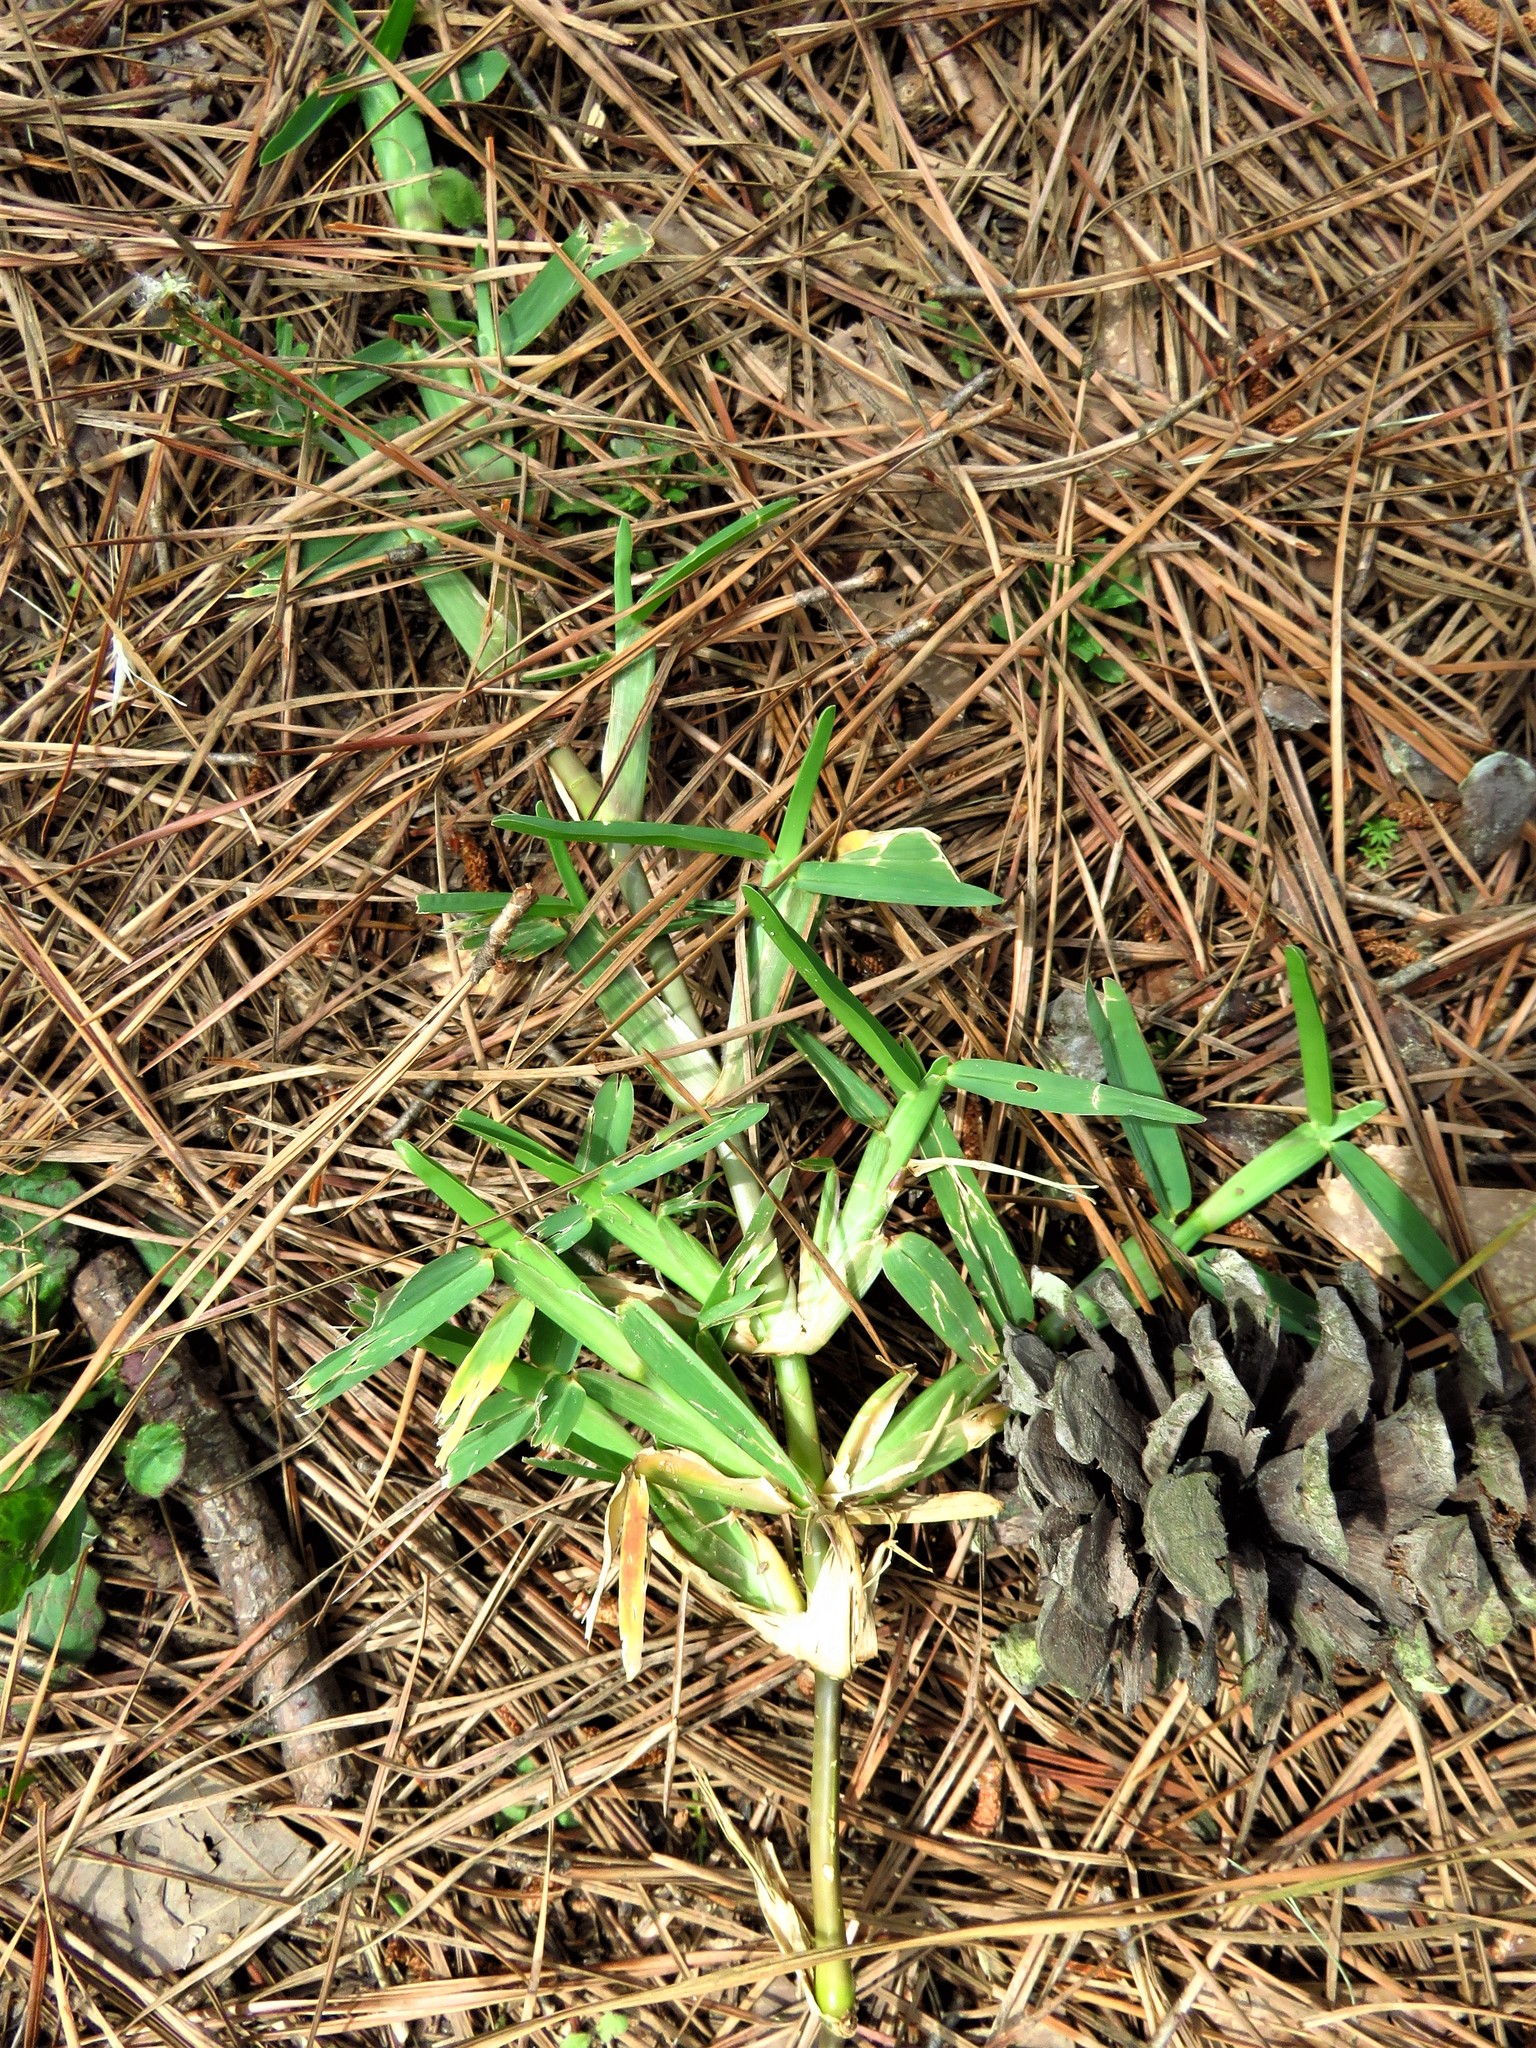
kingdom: Plantae
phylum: Tracheophyta
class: Liliopsida
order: Poales
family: Poaceae
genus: Stenotaphrum
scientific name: Stenotaphrum secundatum
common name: St. augustine grass
